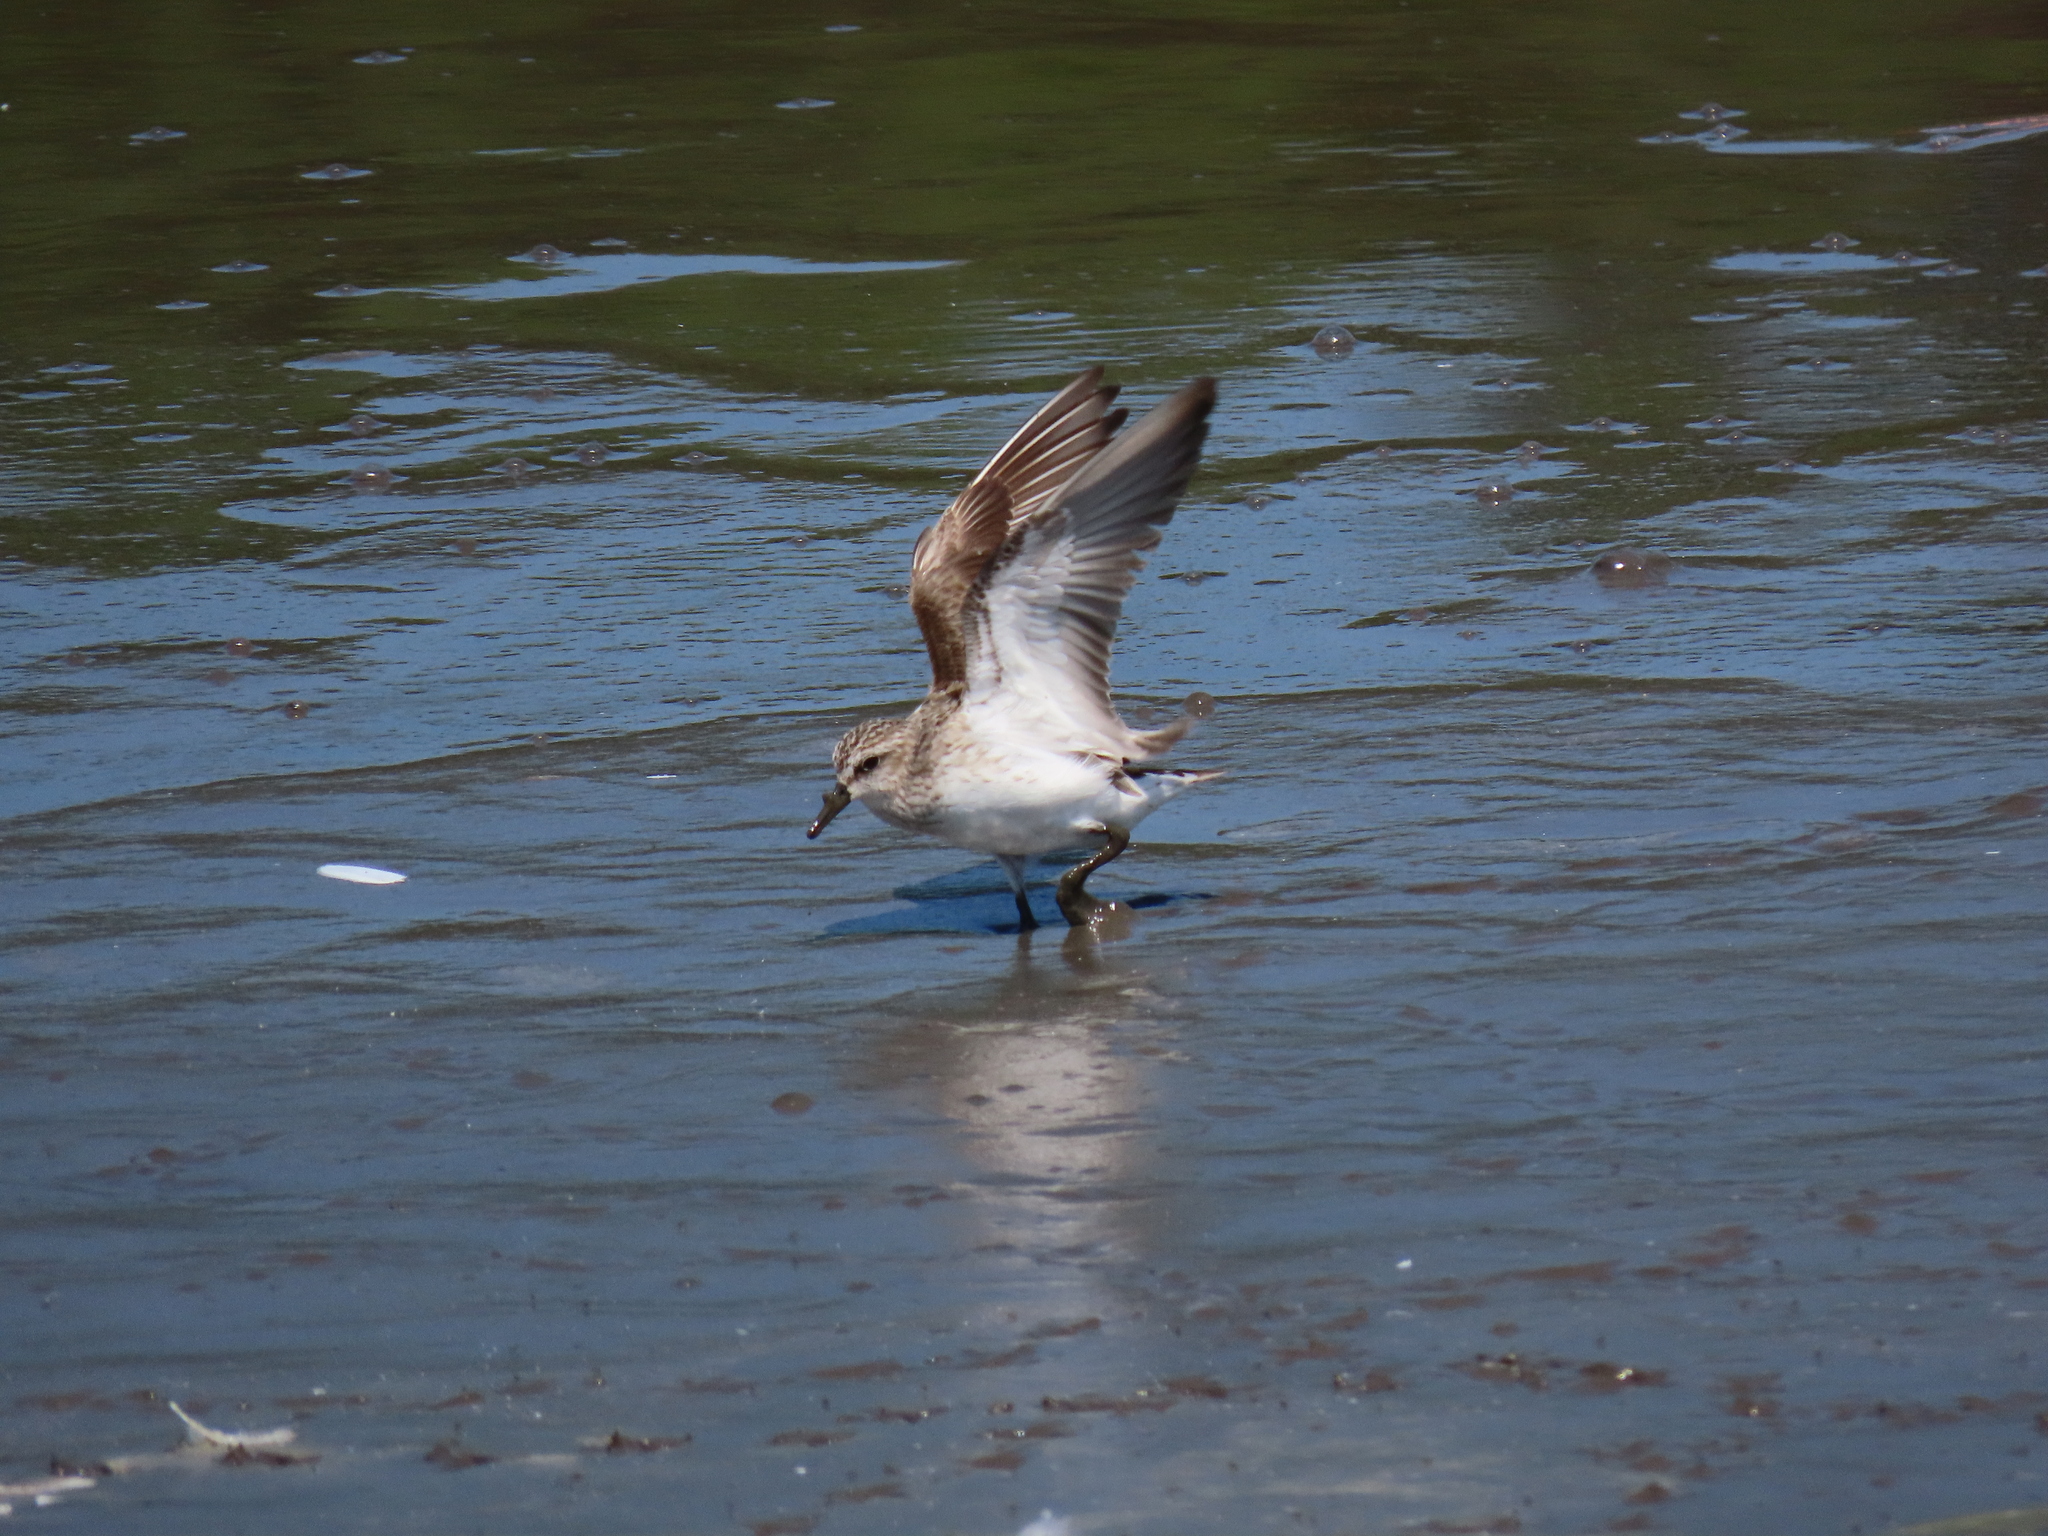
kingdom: Animalia
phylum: Chordata
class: Aves
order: Charadriiformes
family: Scolopacidae
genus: Calidris
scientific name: Calidris pusilla
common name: Semipalmated sandpiper
